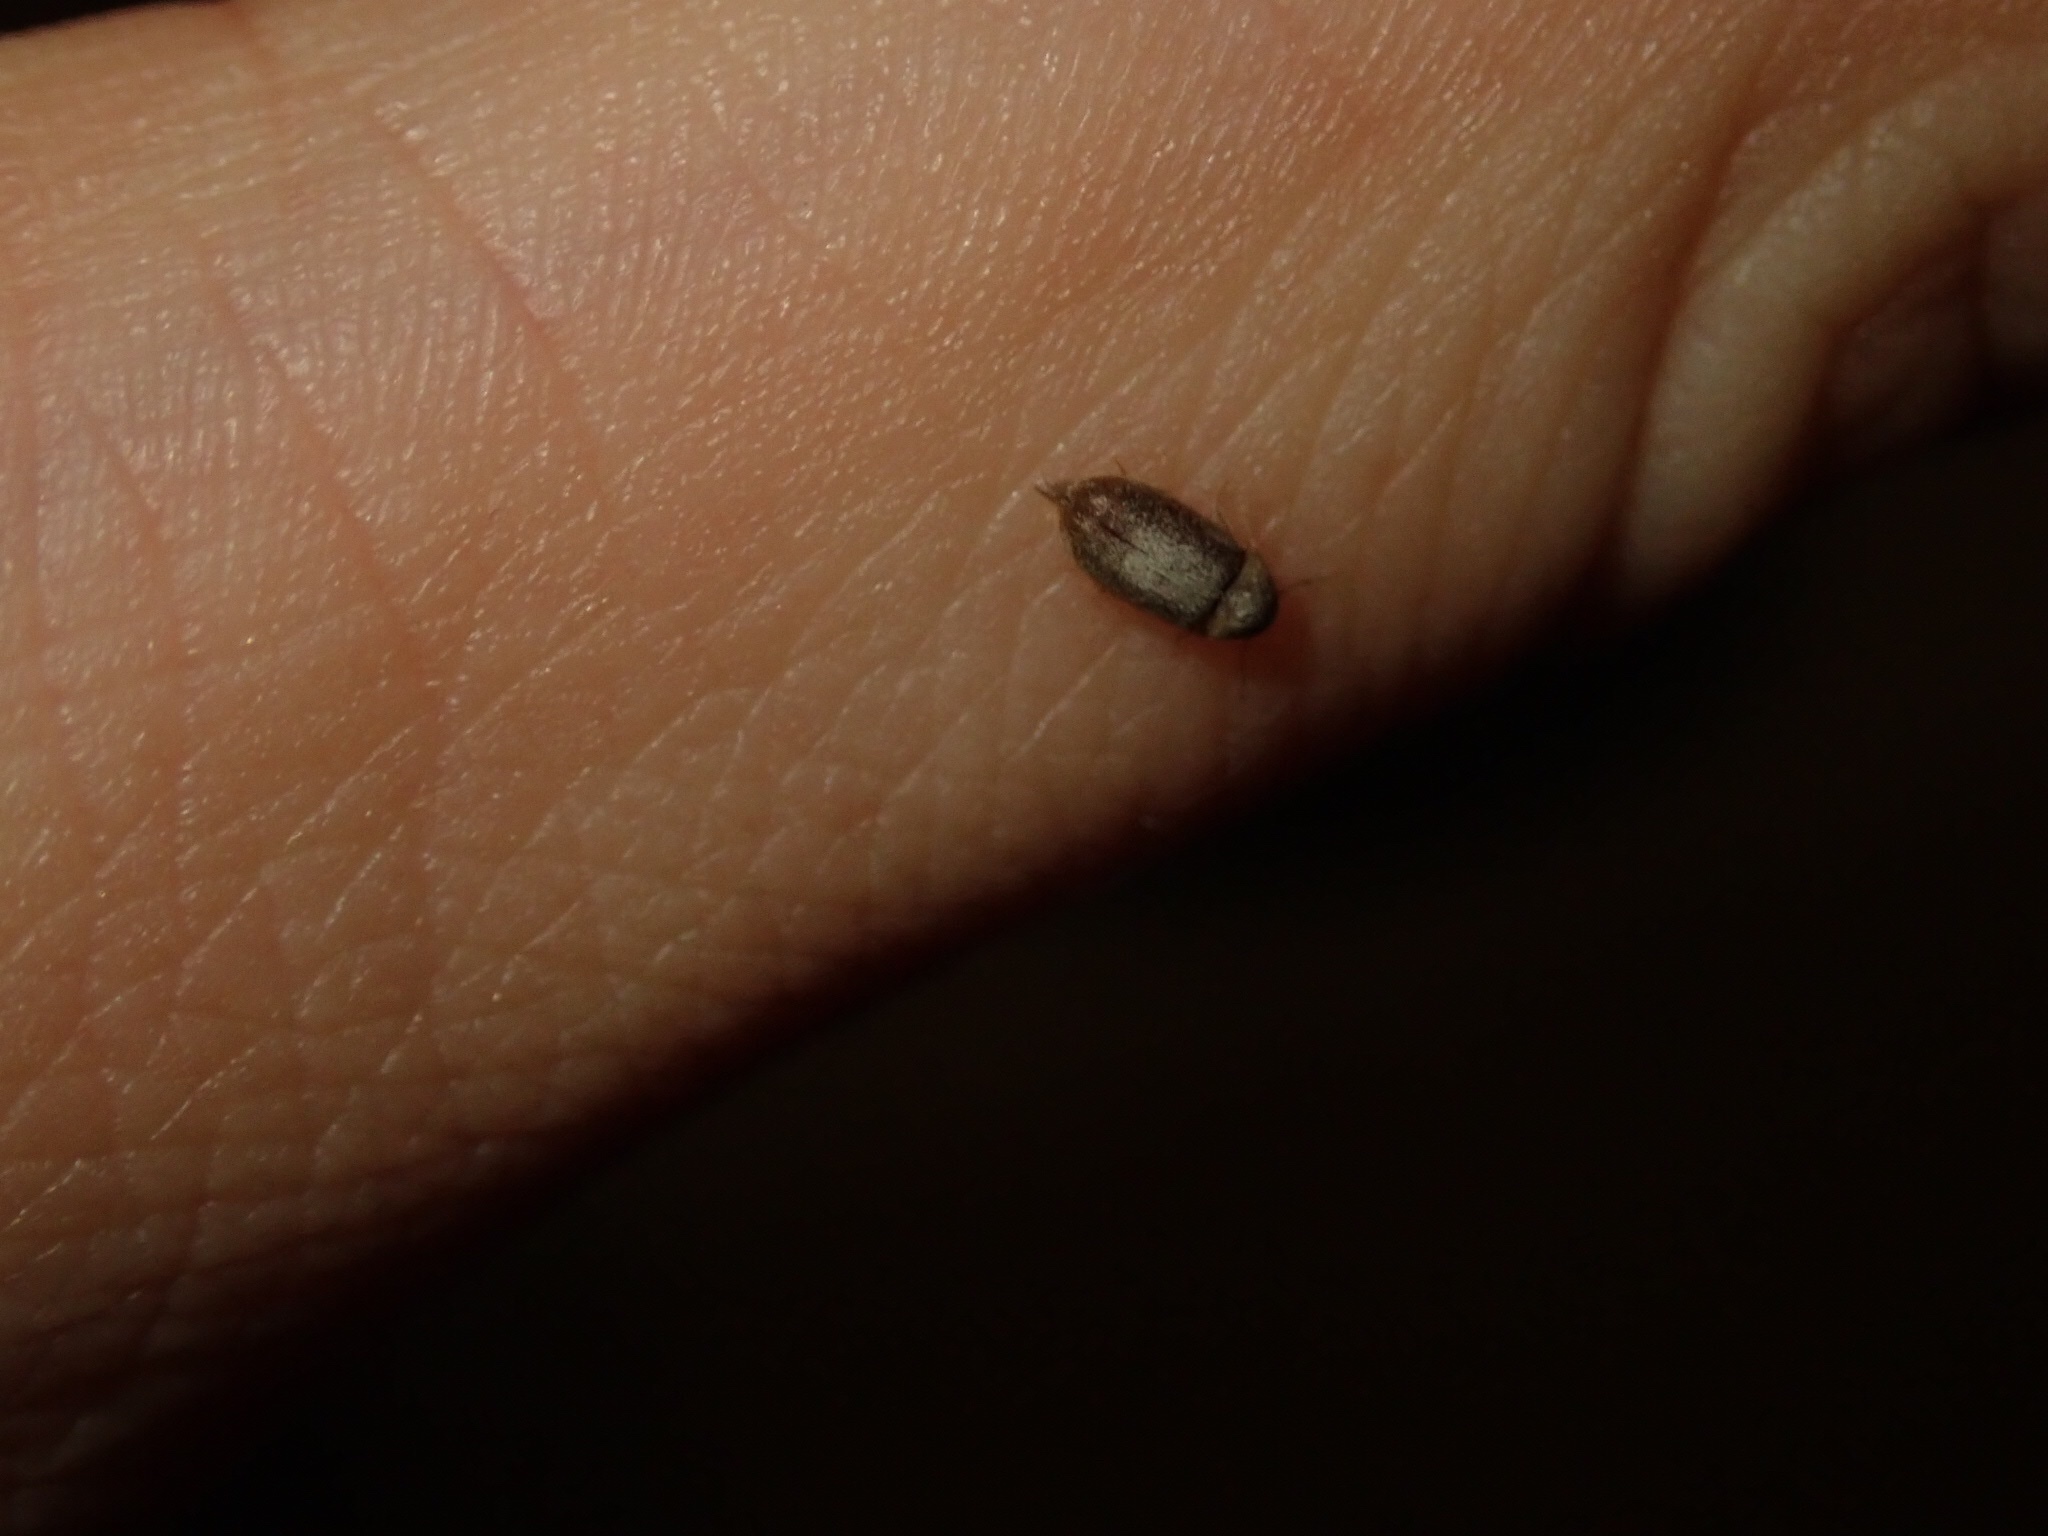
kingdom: Animalia
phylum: Arthropoda
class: Insecta
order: Coleoptera
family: Anobiidae
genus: Stegobium
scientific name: Stegobium paniceum
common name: Drugstore beetle
